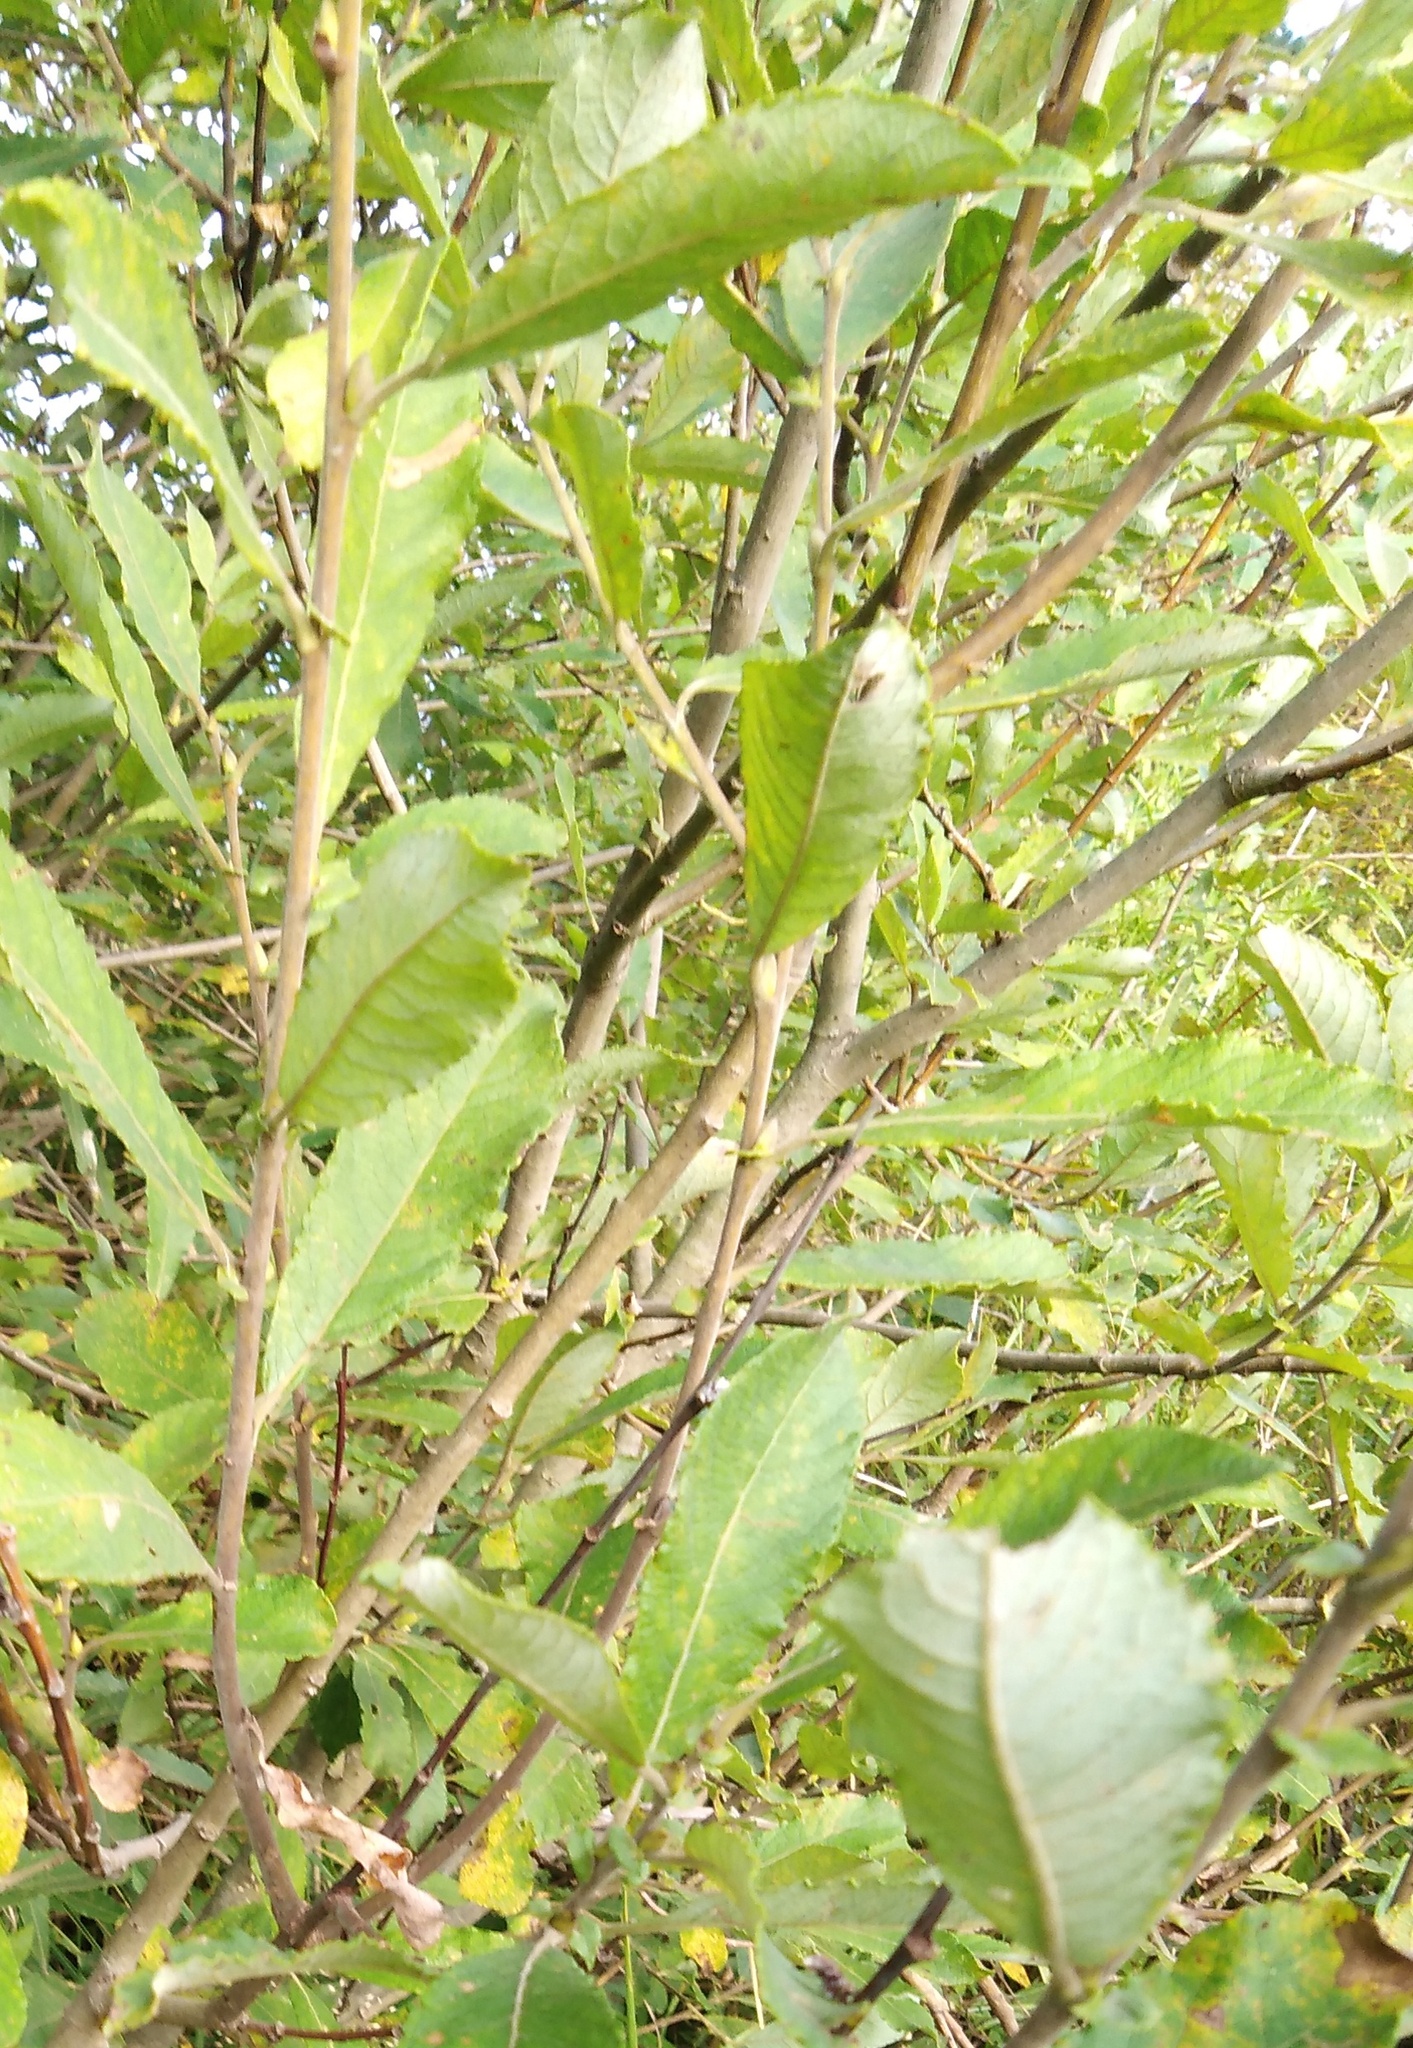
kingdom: Plantae
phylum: Tracheophyta
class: Magnoliopsida
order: Malpighiales
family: Salicaceae
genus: Salix
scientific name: Salix cinerea
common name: Common sallow
